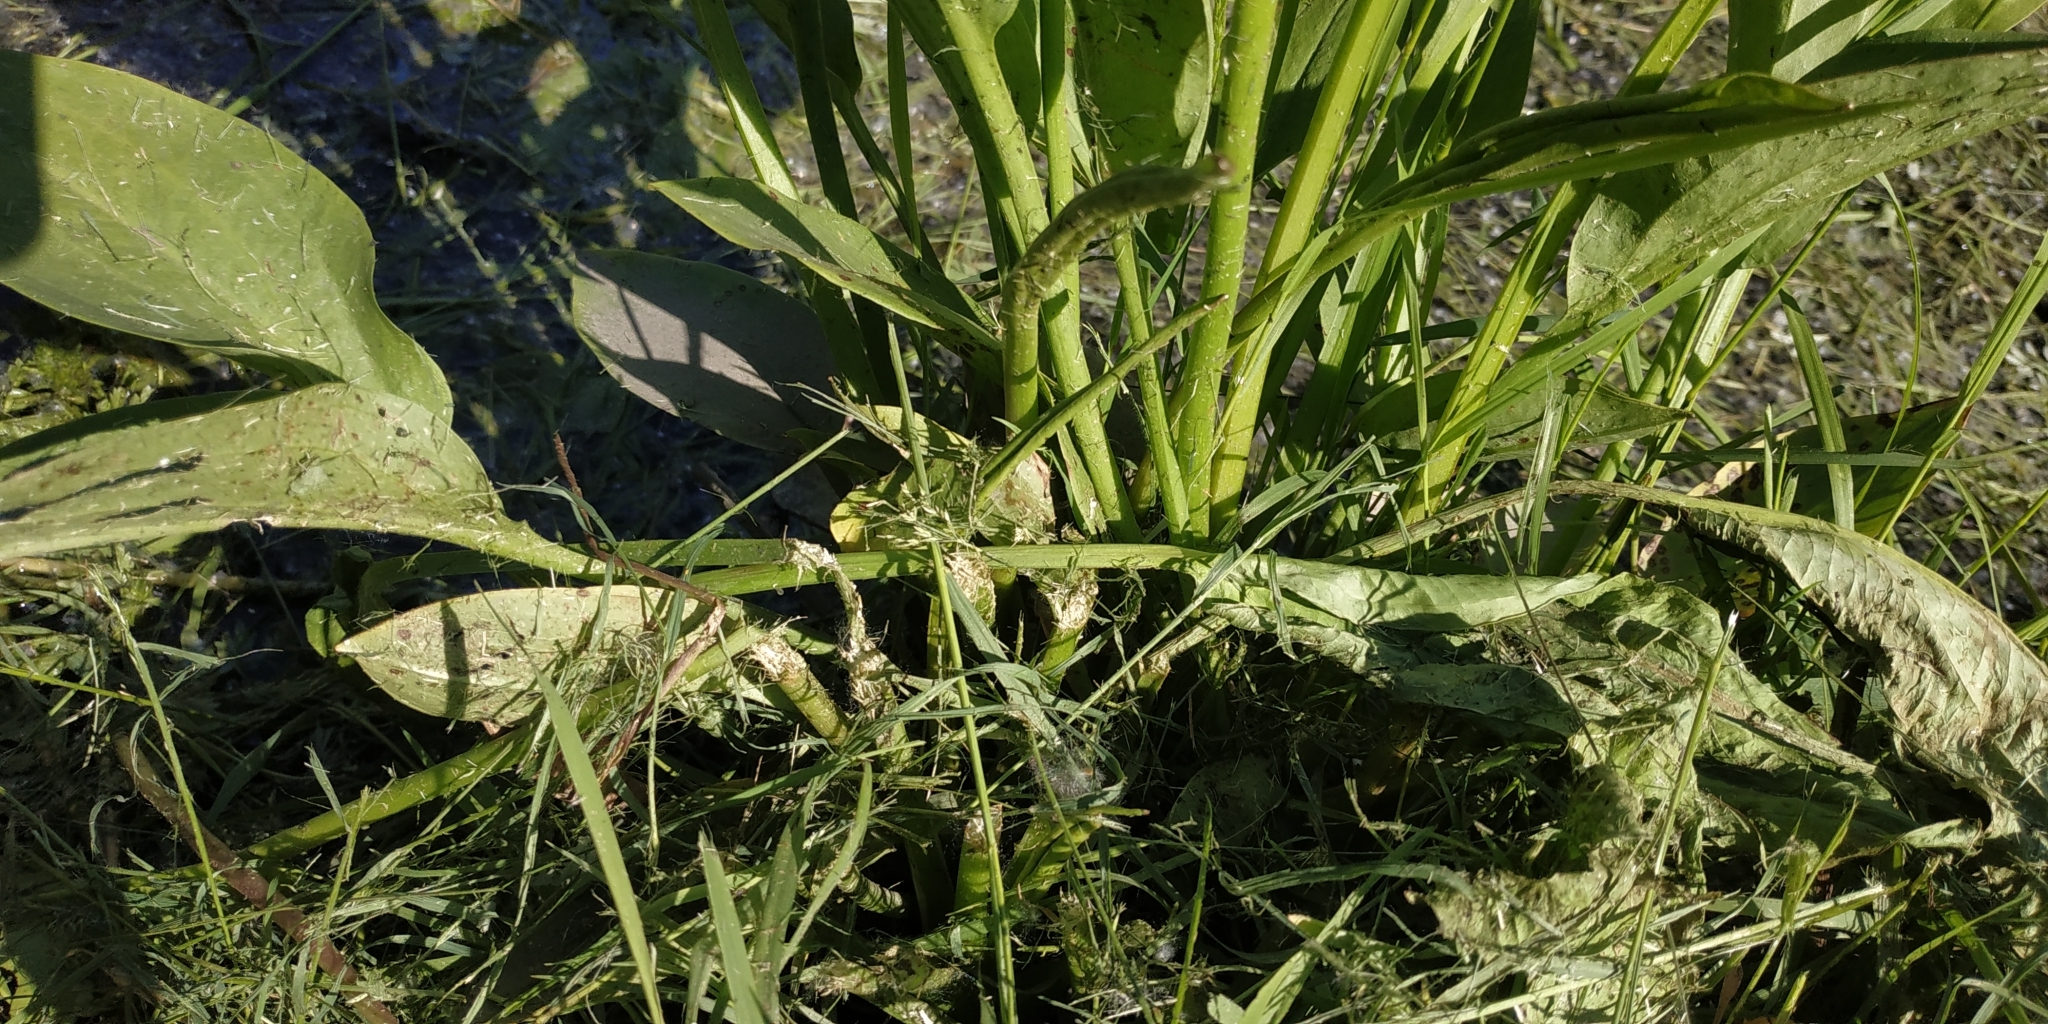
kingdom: Plantae
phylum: Tracheophyta
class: Liliopsida
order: Alismatales
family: Alismataceae
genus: Alisma
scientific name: Alisma plantago-aquatica
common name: Water-plantain
